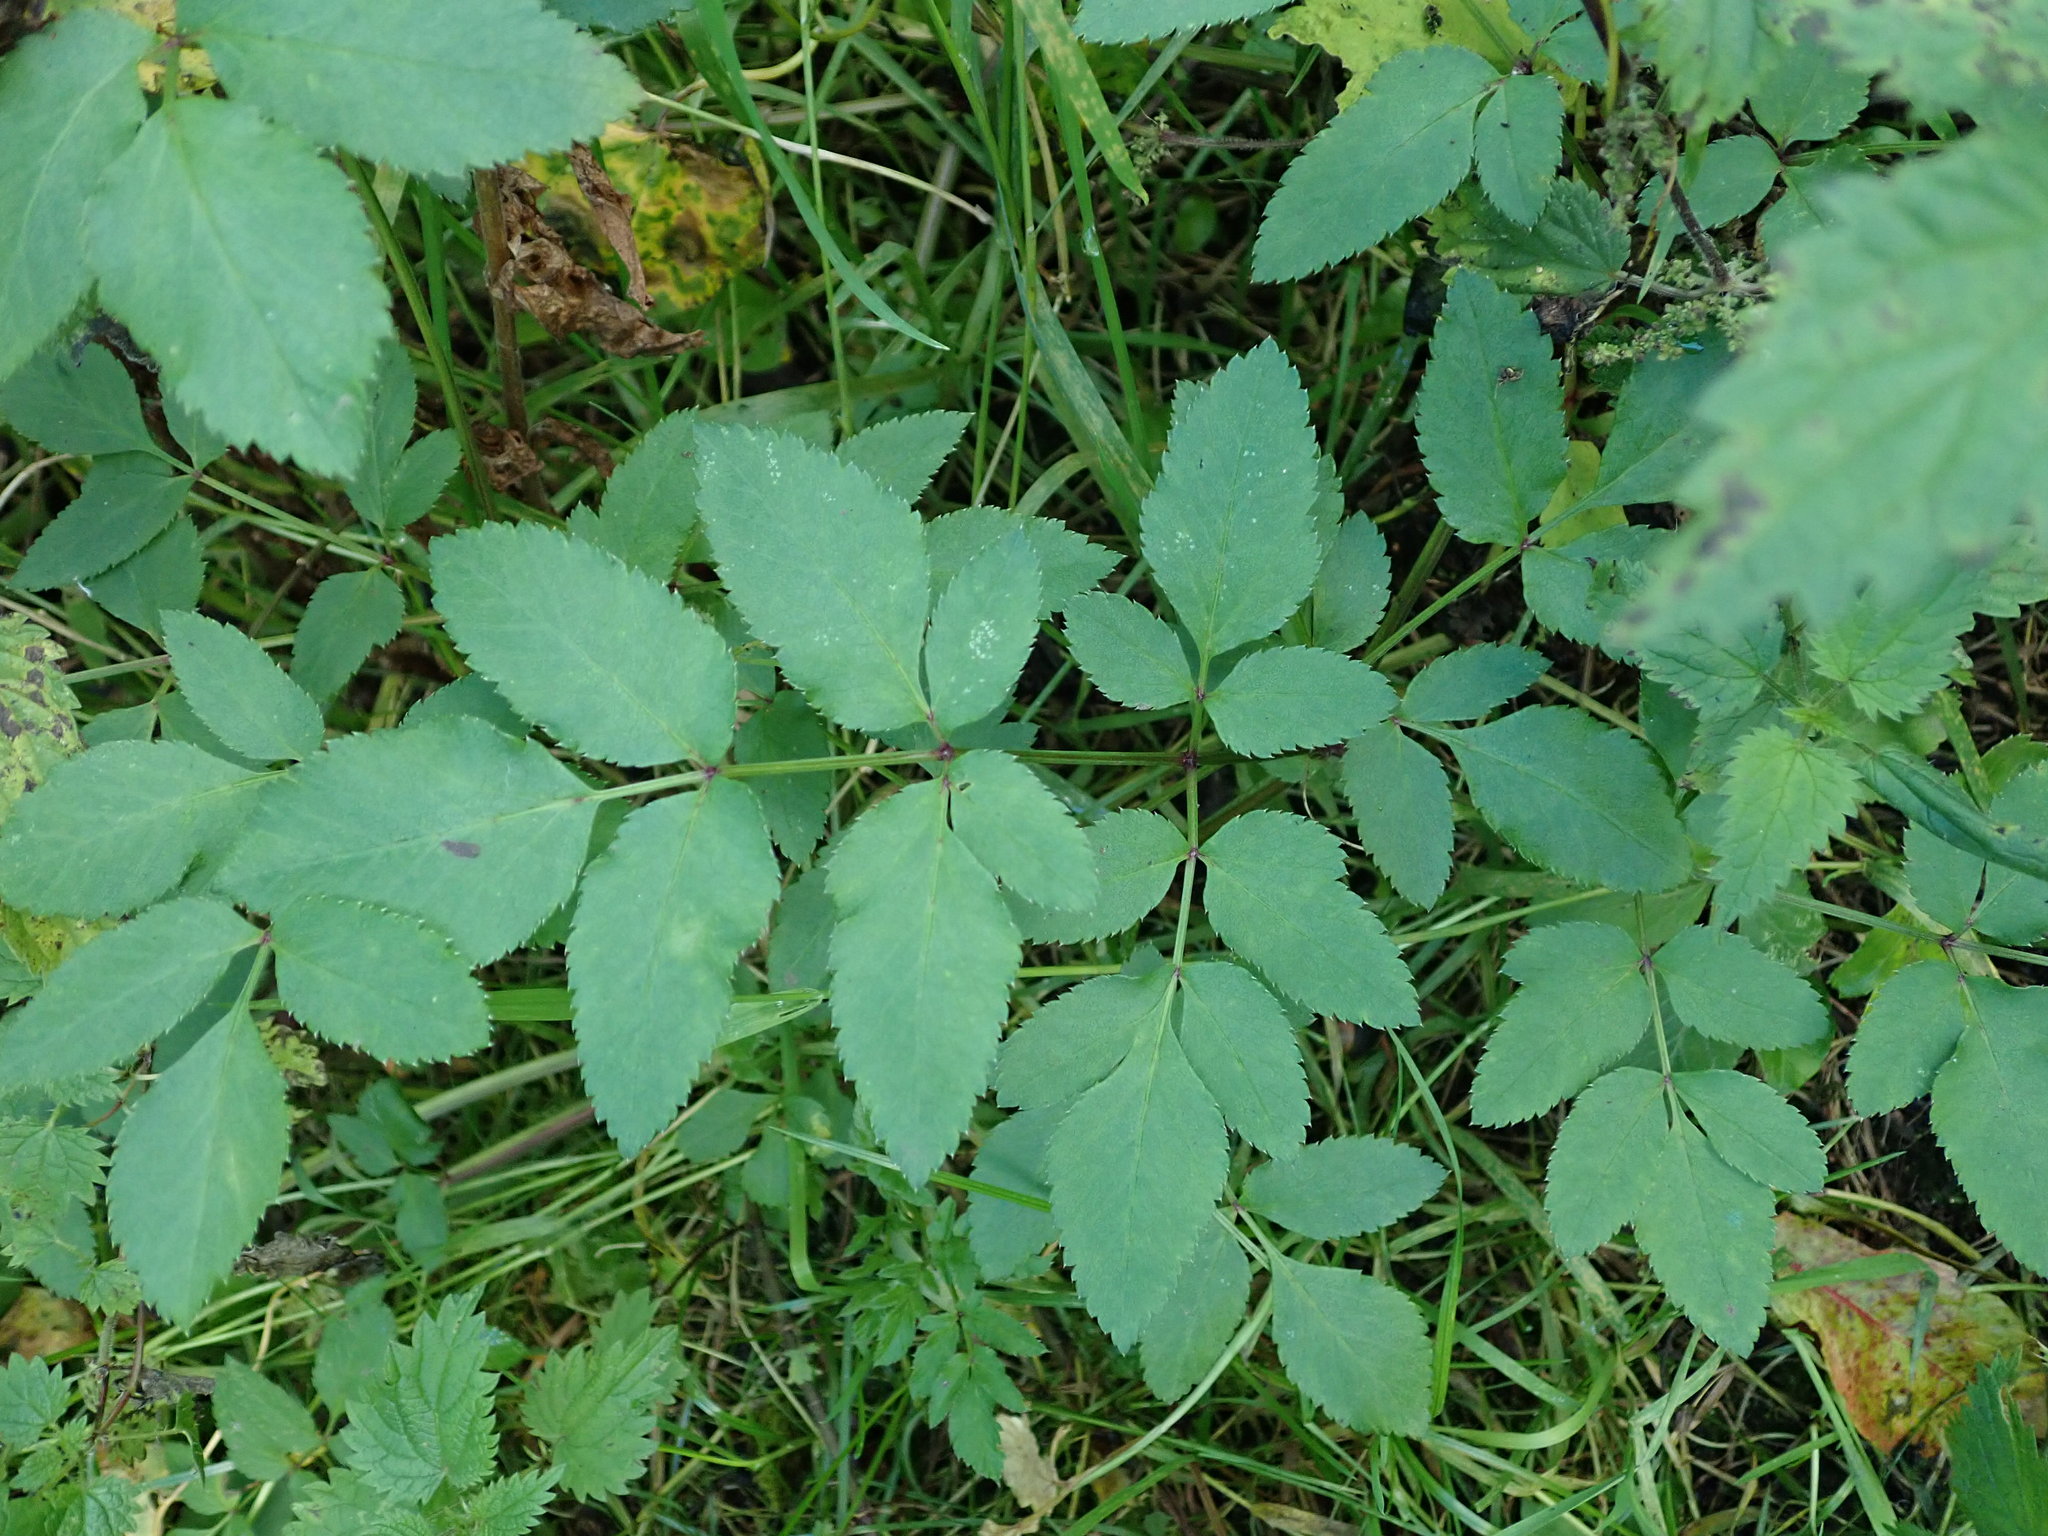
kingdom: Plantae
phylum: Tracheophyta
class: Magnoliopsida
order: Apiales
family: Apiaceae
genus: Angelica
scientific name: Angelica sylvestris
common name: Wild angelica
